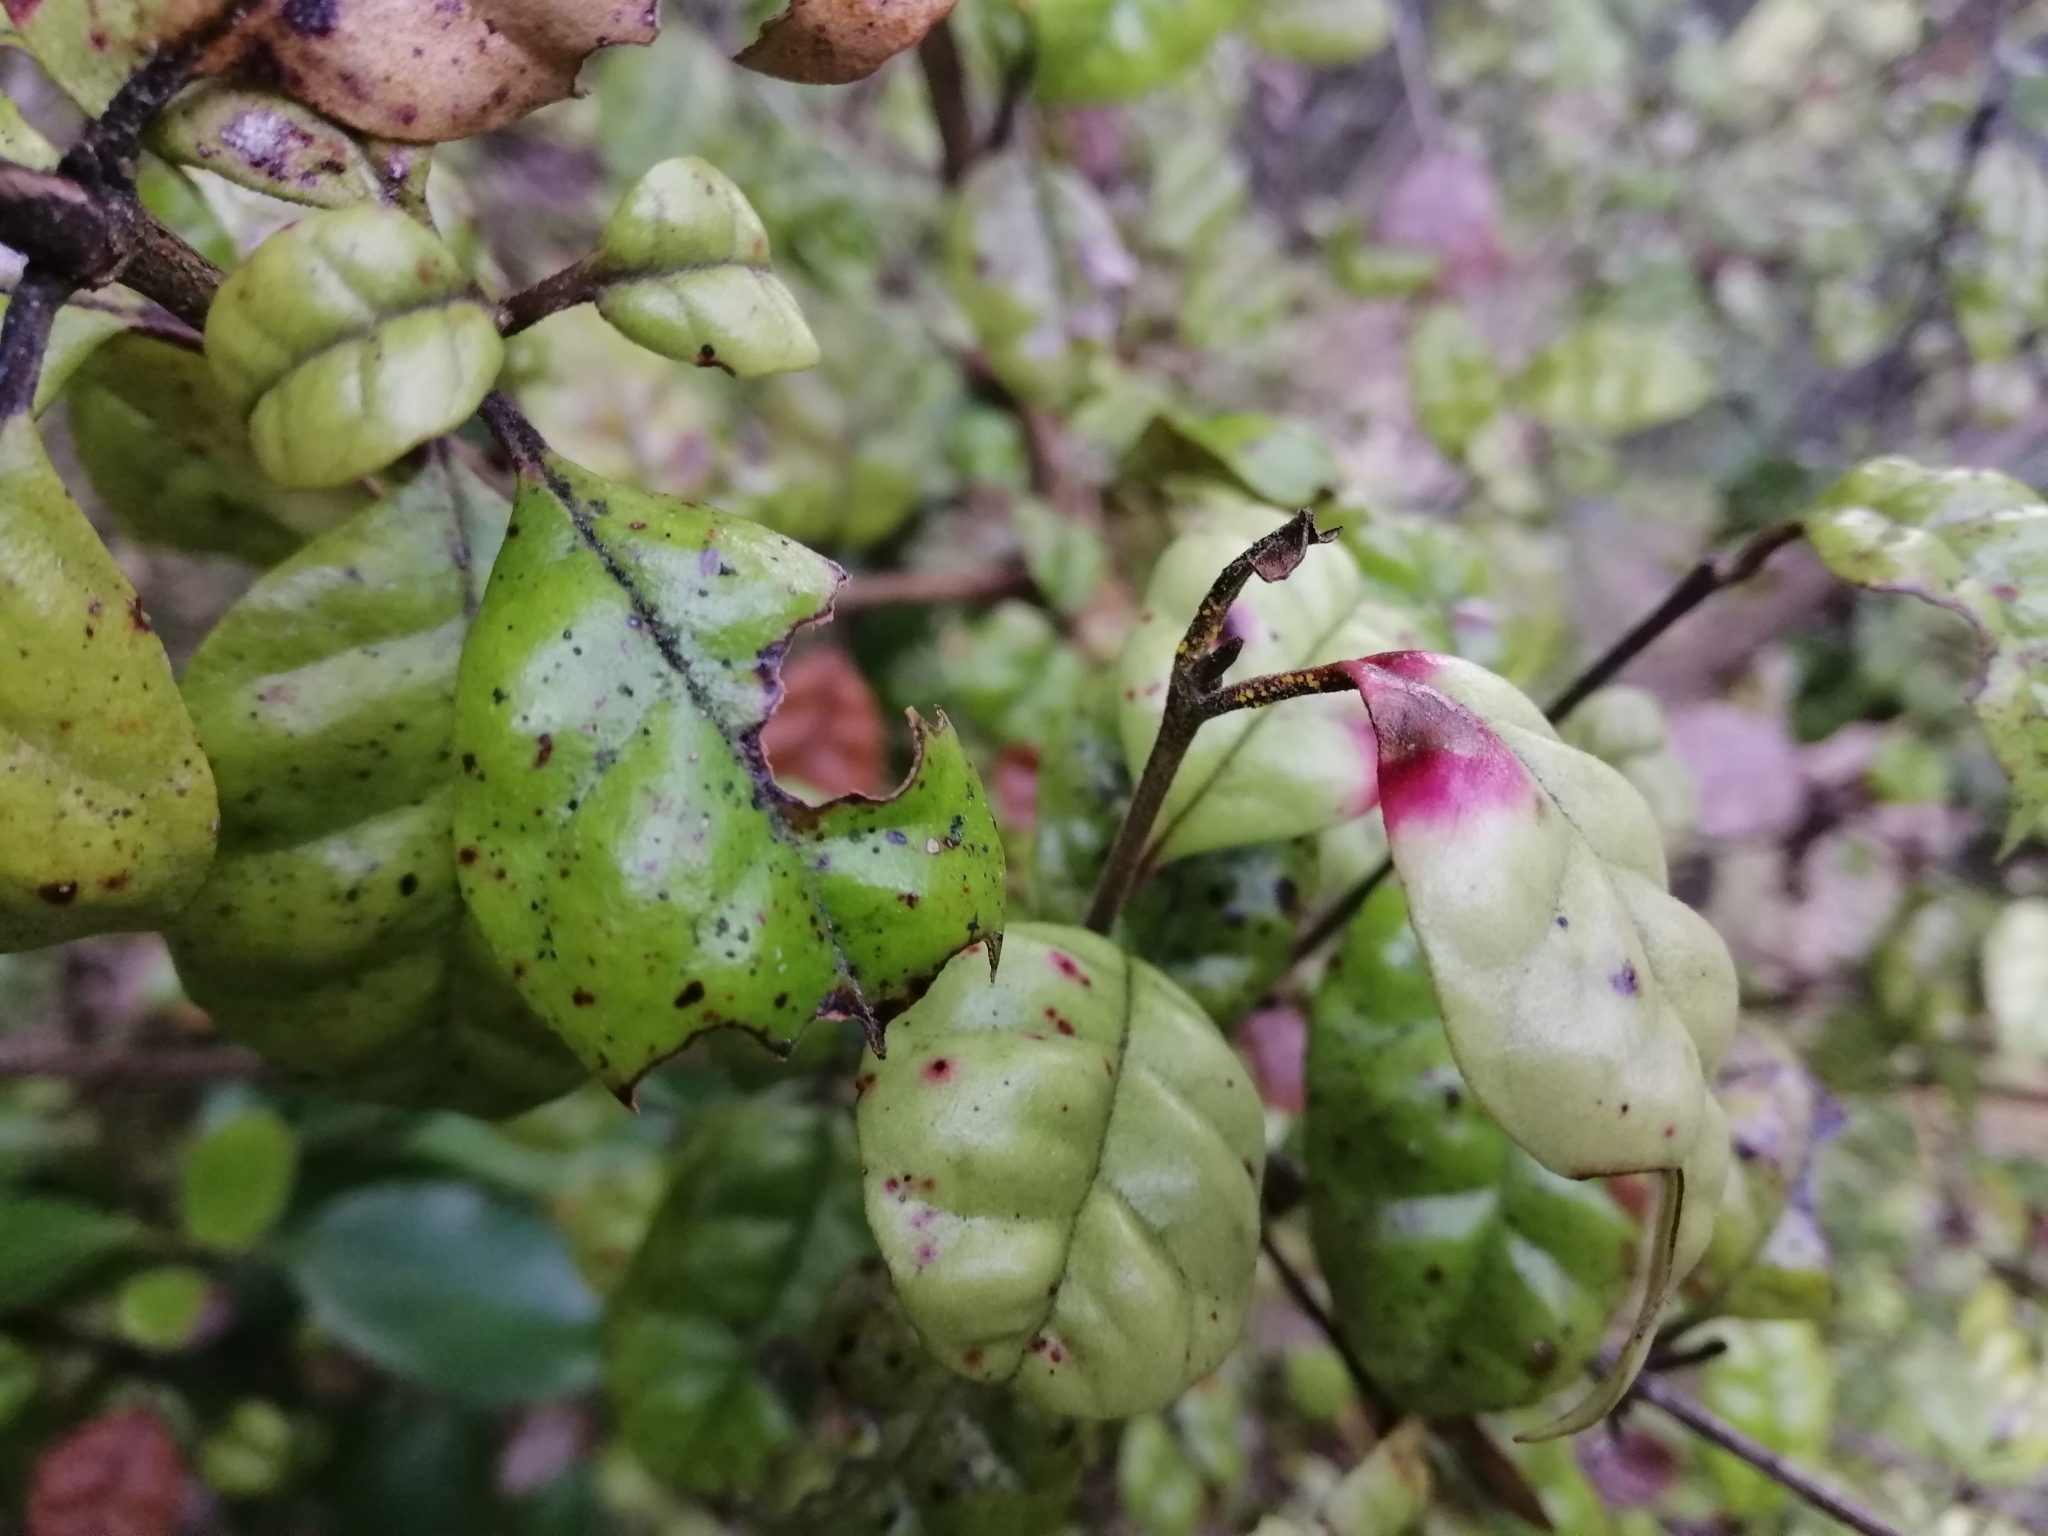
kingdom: Fungi
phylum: Basidiomycota
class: Pucciniomycetes
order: Pucciniales
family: Sphaerophragmiaceae
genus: Austropuccinia
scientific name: Austropuccinia psidii
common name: Myrtle rust
